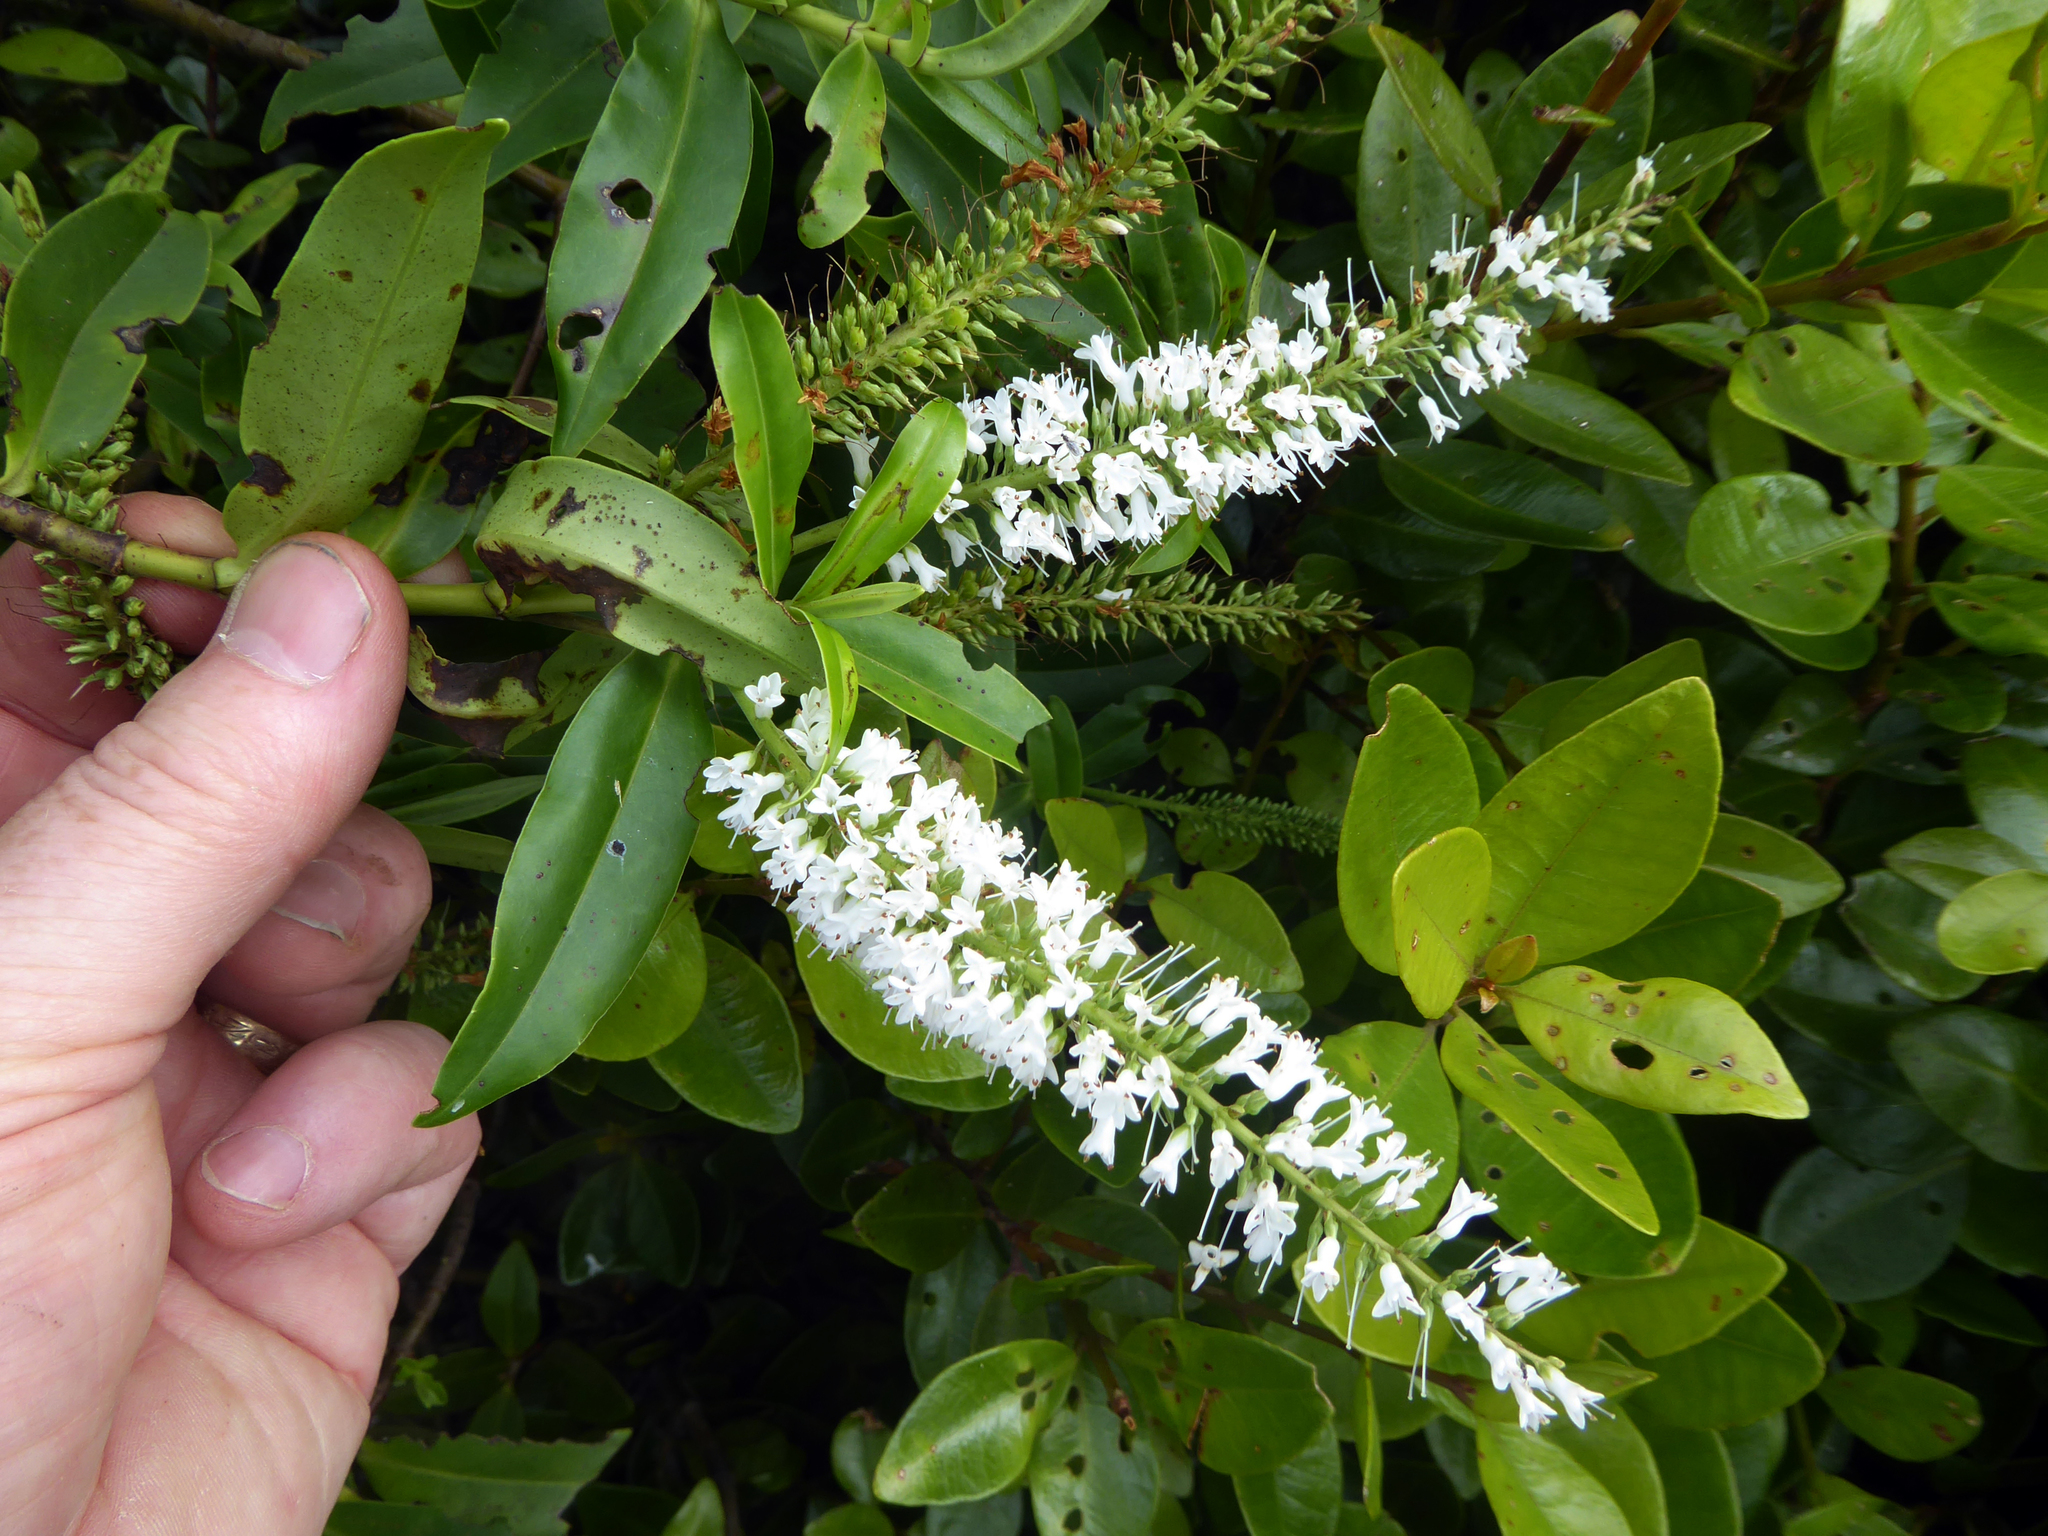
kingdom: Plantae
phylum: Tracheophyta
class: Magnoliopsida
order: Lamiales
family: Plantaginaceae
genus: Veronica
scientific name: Veronica stricta
